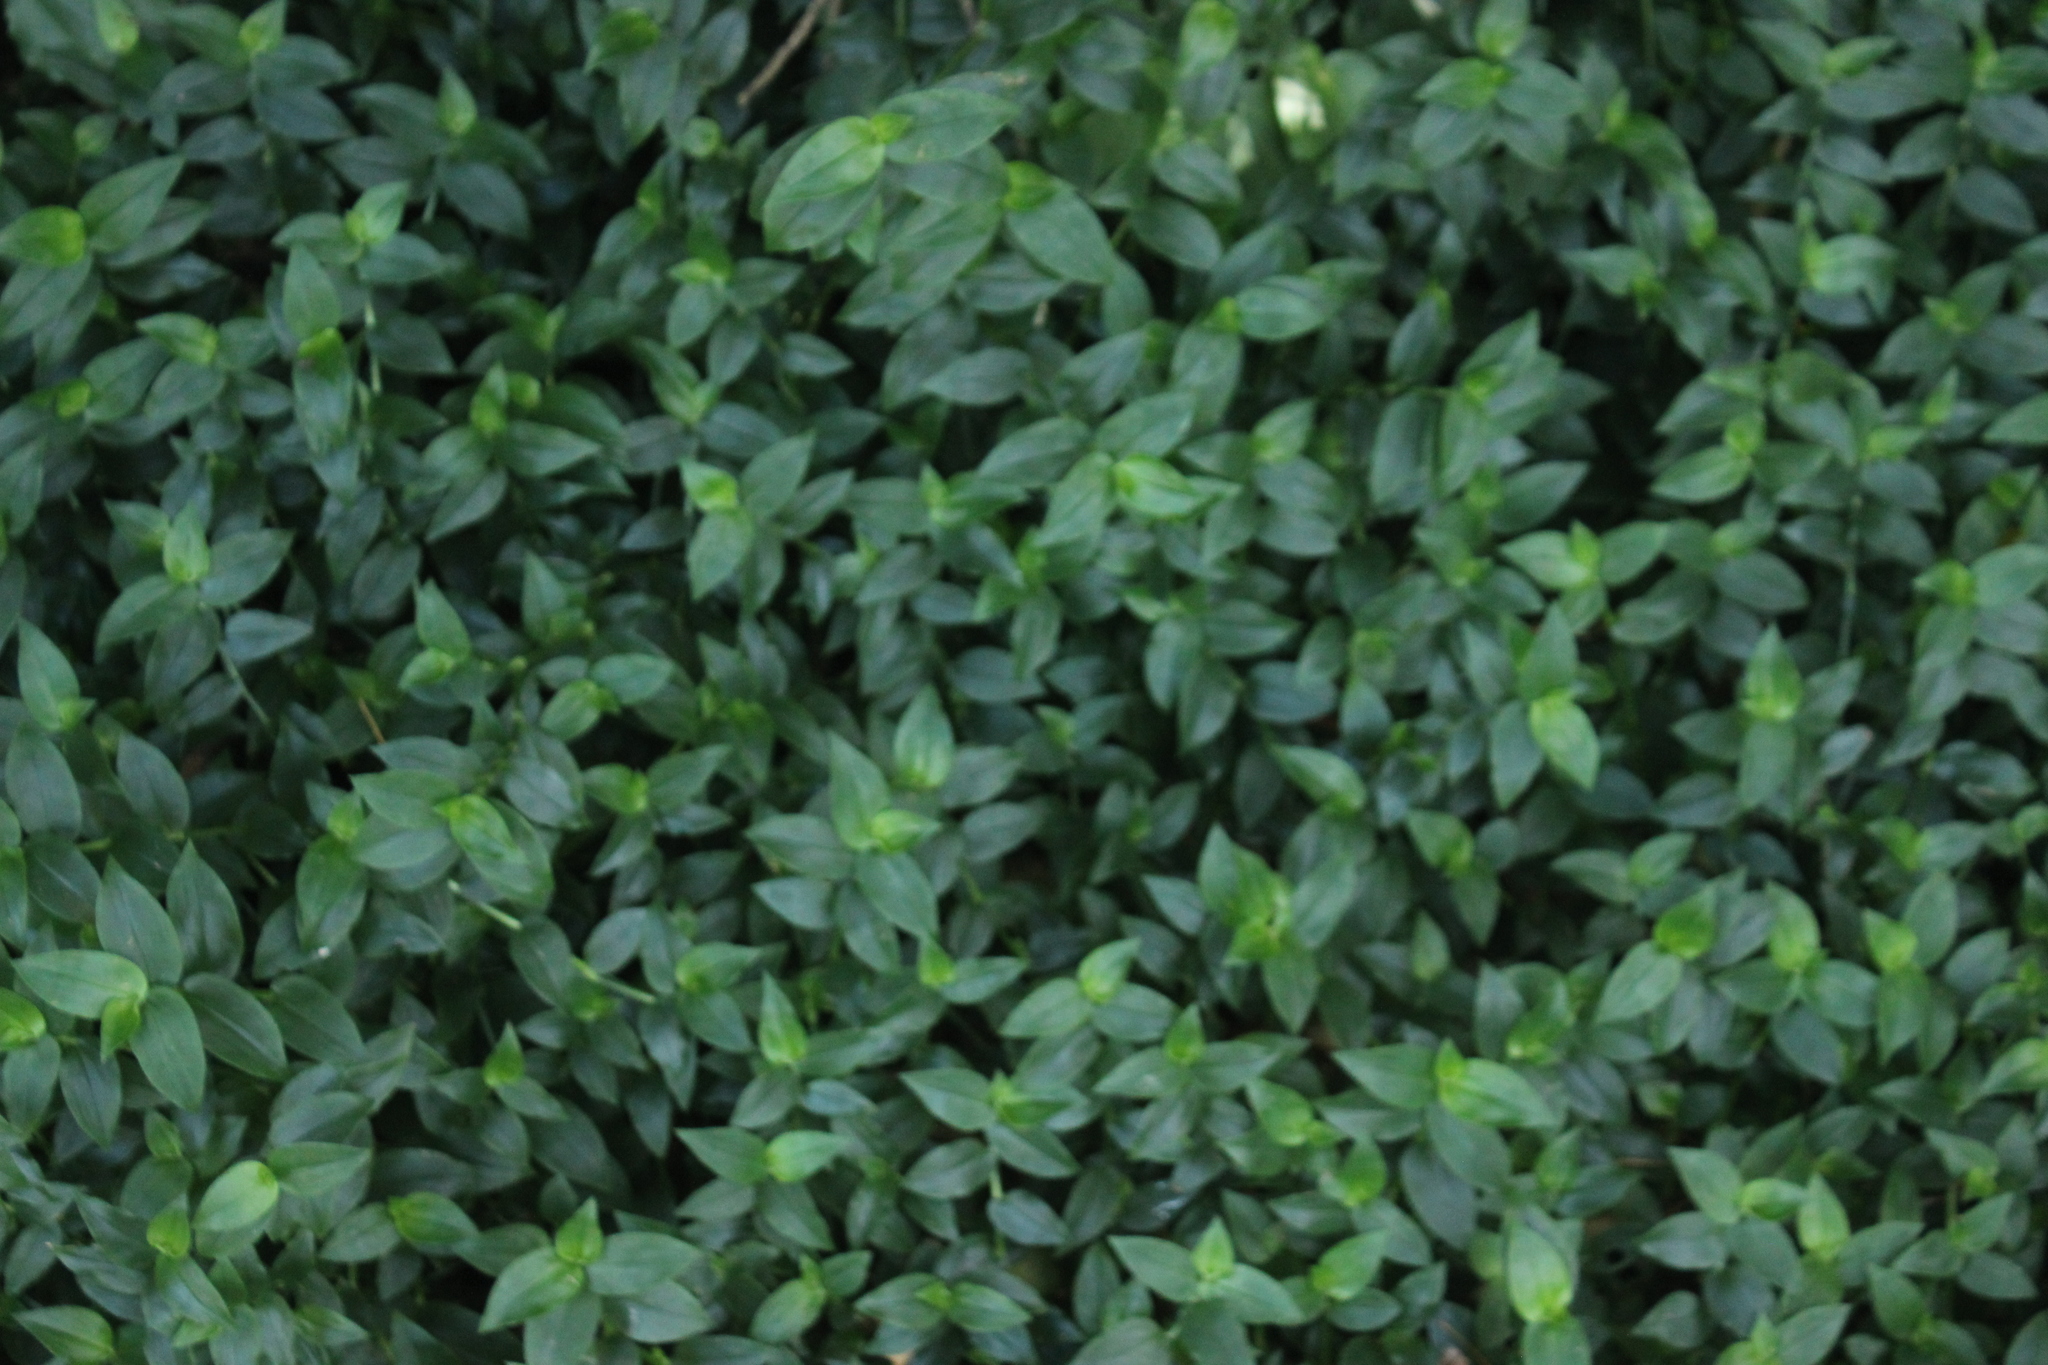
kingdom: Plantae
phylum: Tracheophyta
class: Liliopsida
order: Commelinales
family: Commelinaceae
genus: Tradescantia
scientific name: Tradescantia fluminensis
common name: Wandering-jew
